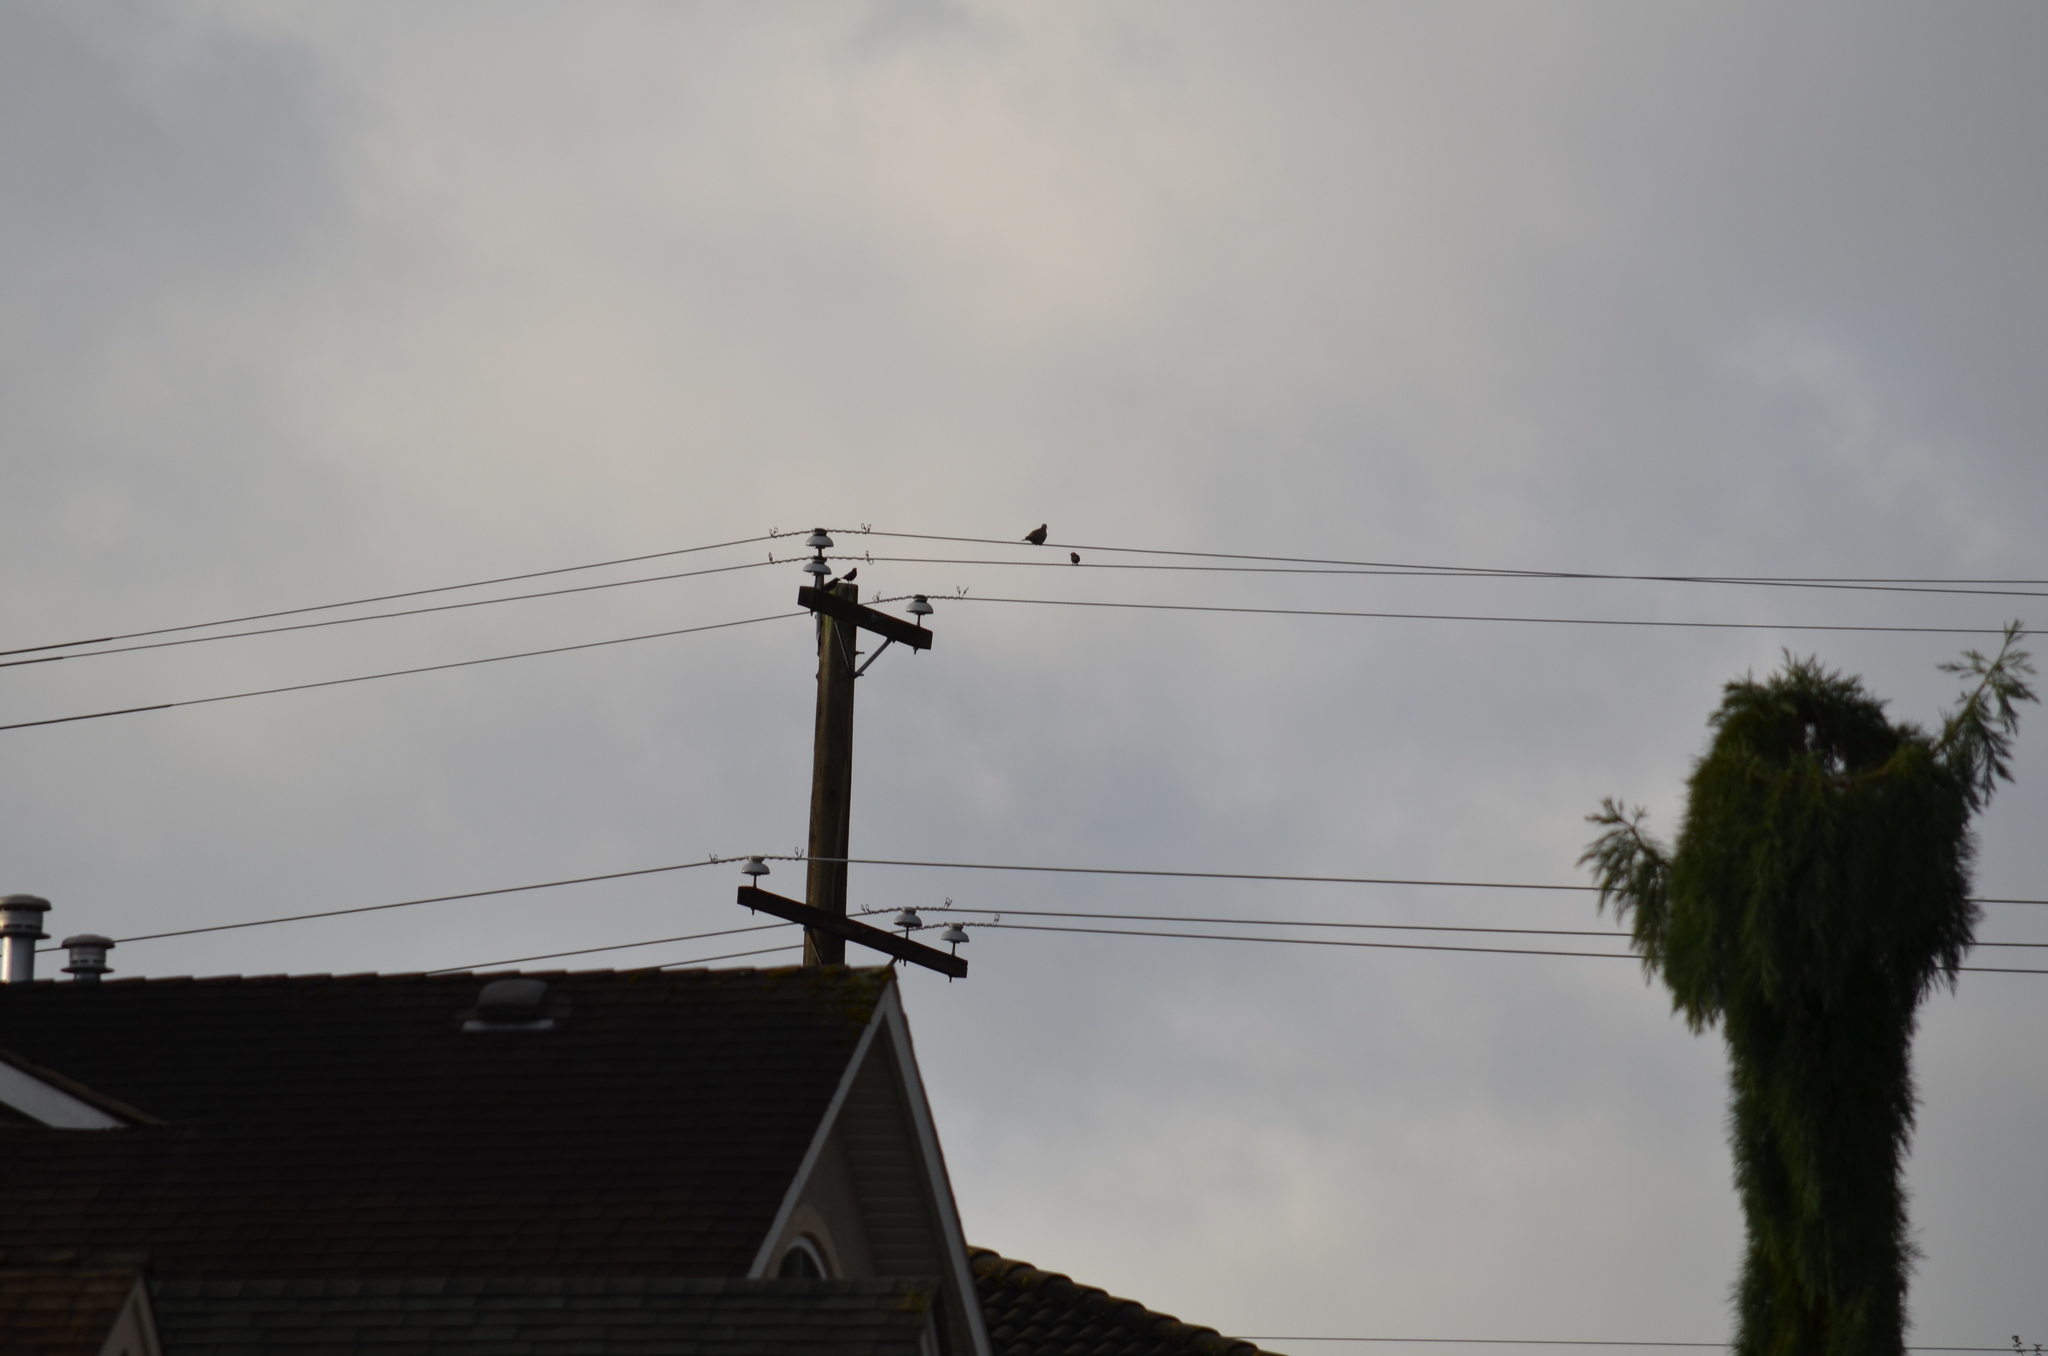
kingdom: Animalia
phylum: Chordata
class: Aves
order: Passeriformes
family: Sturnidae
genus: Sturnus
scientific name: Sturnus vulgaris
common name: Common starling
